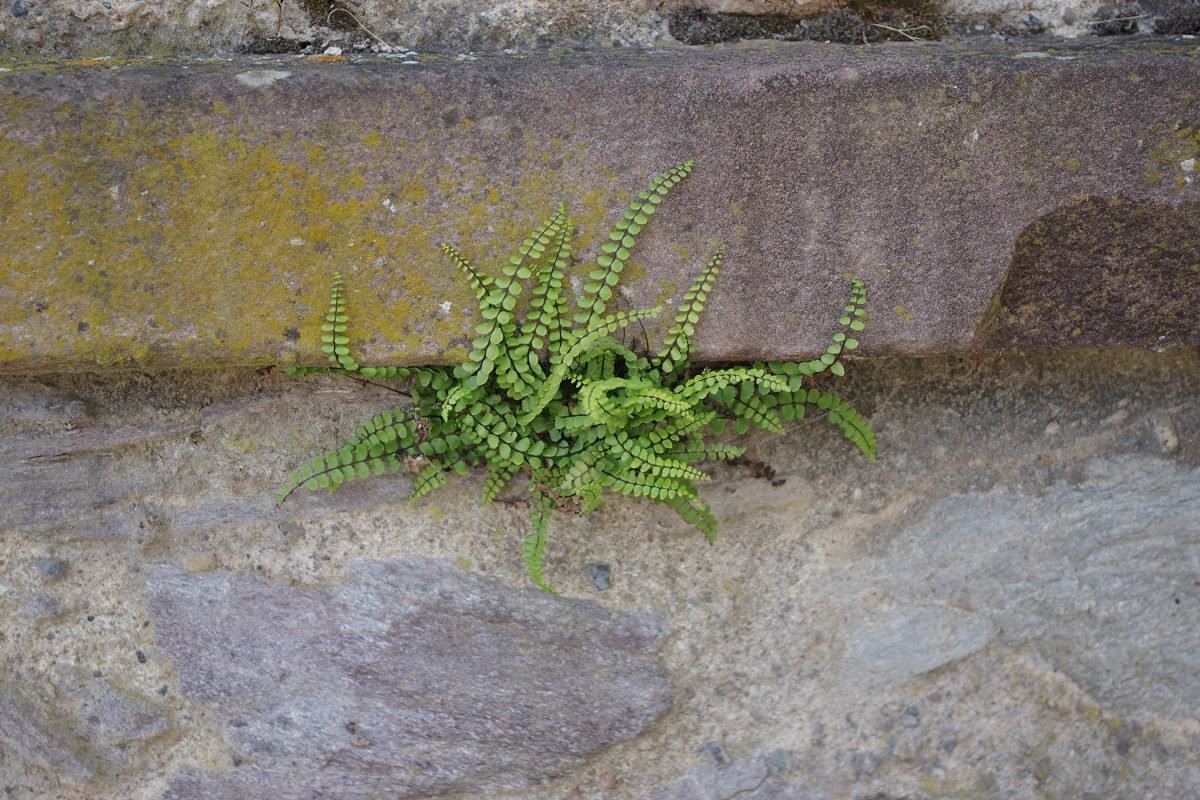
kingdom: Plantae
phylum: Tracheophyta
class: Polypodiopsida
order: Polypodiales
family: Aspleniaceae
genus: Asplenium
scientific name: Asplenium trichomanes
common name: Maidenhair spleenwort
